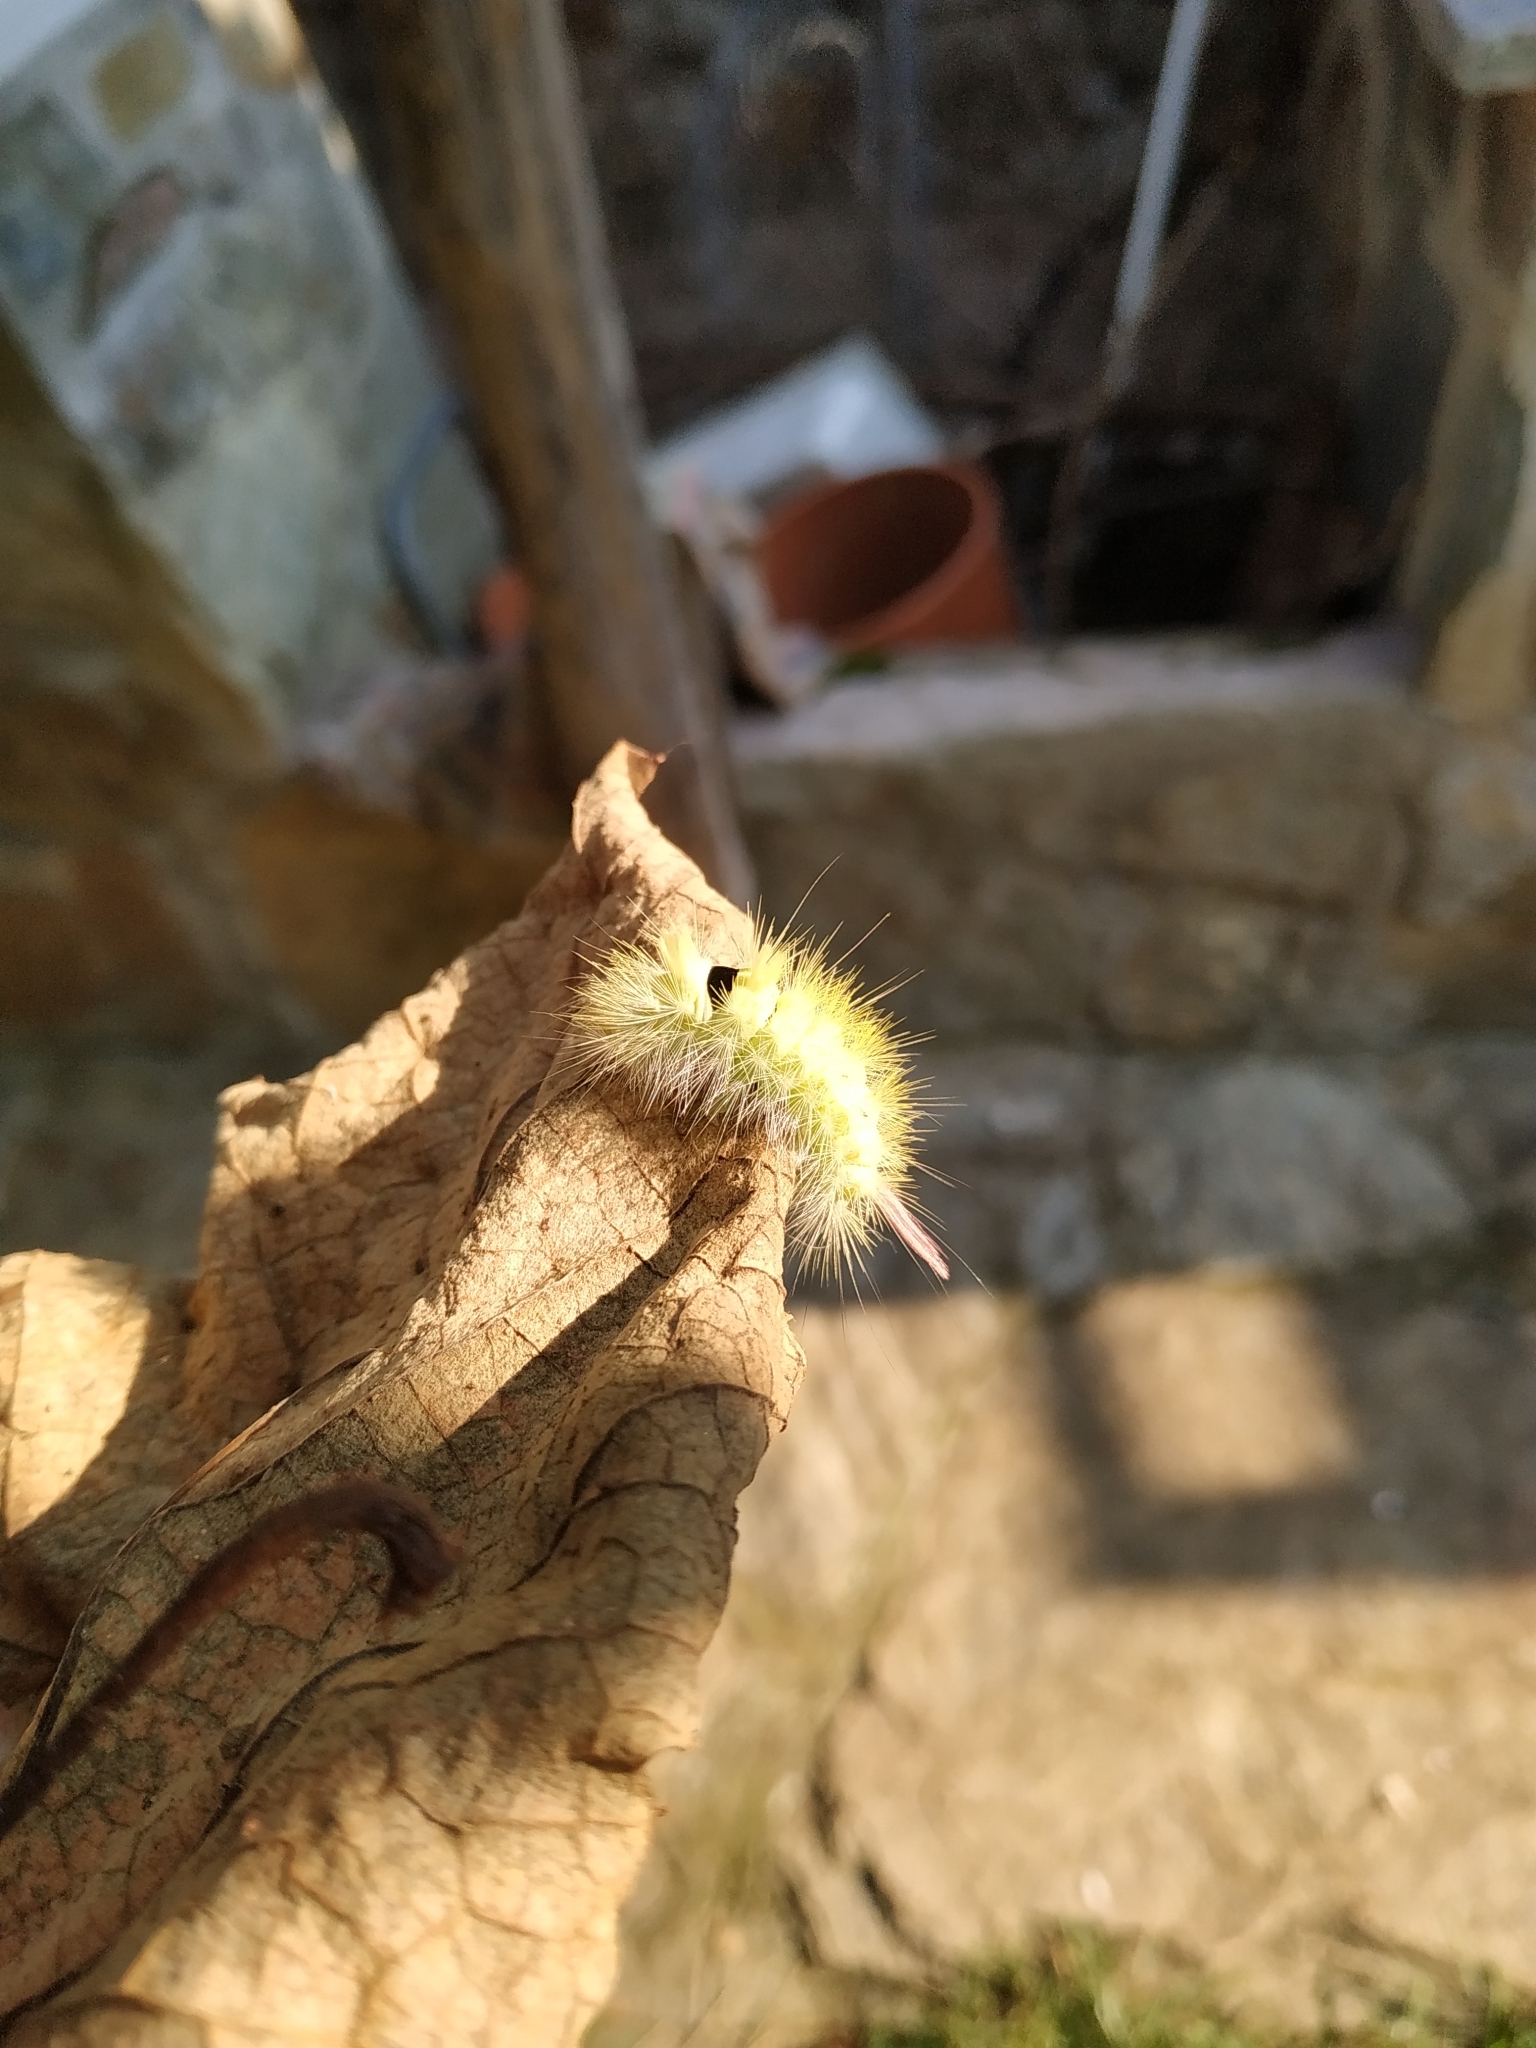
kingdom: Animalia
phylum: Arthropoda
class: Insecta
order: Lepidoptera
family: Erebidae
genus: Calliteara
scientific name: Calliteara pudibunda
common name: Pale tussock
